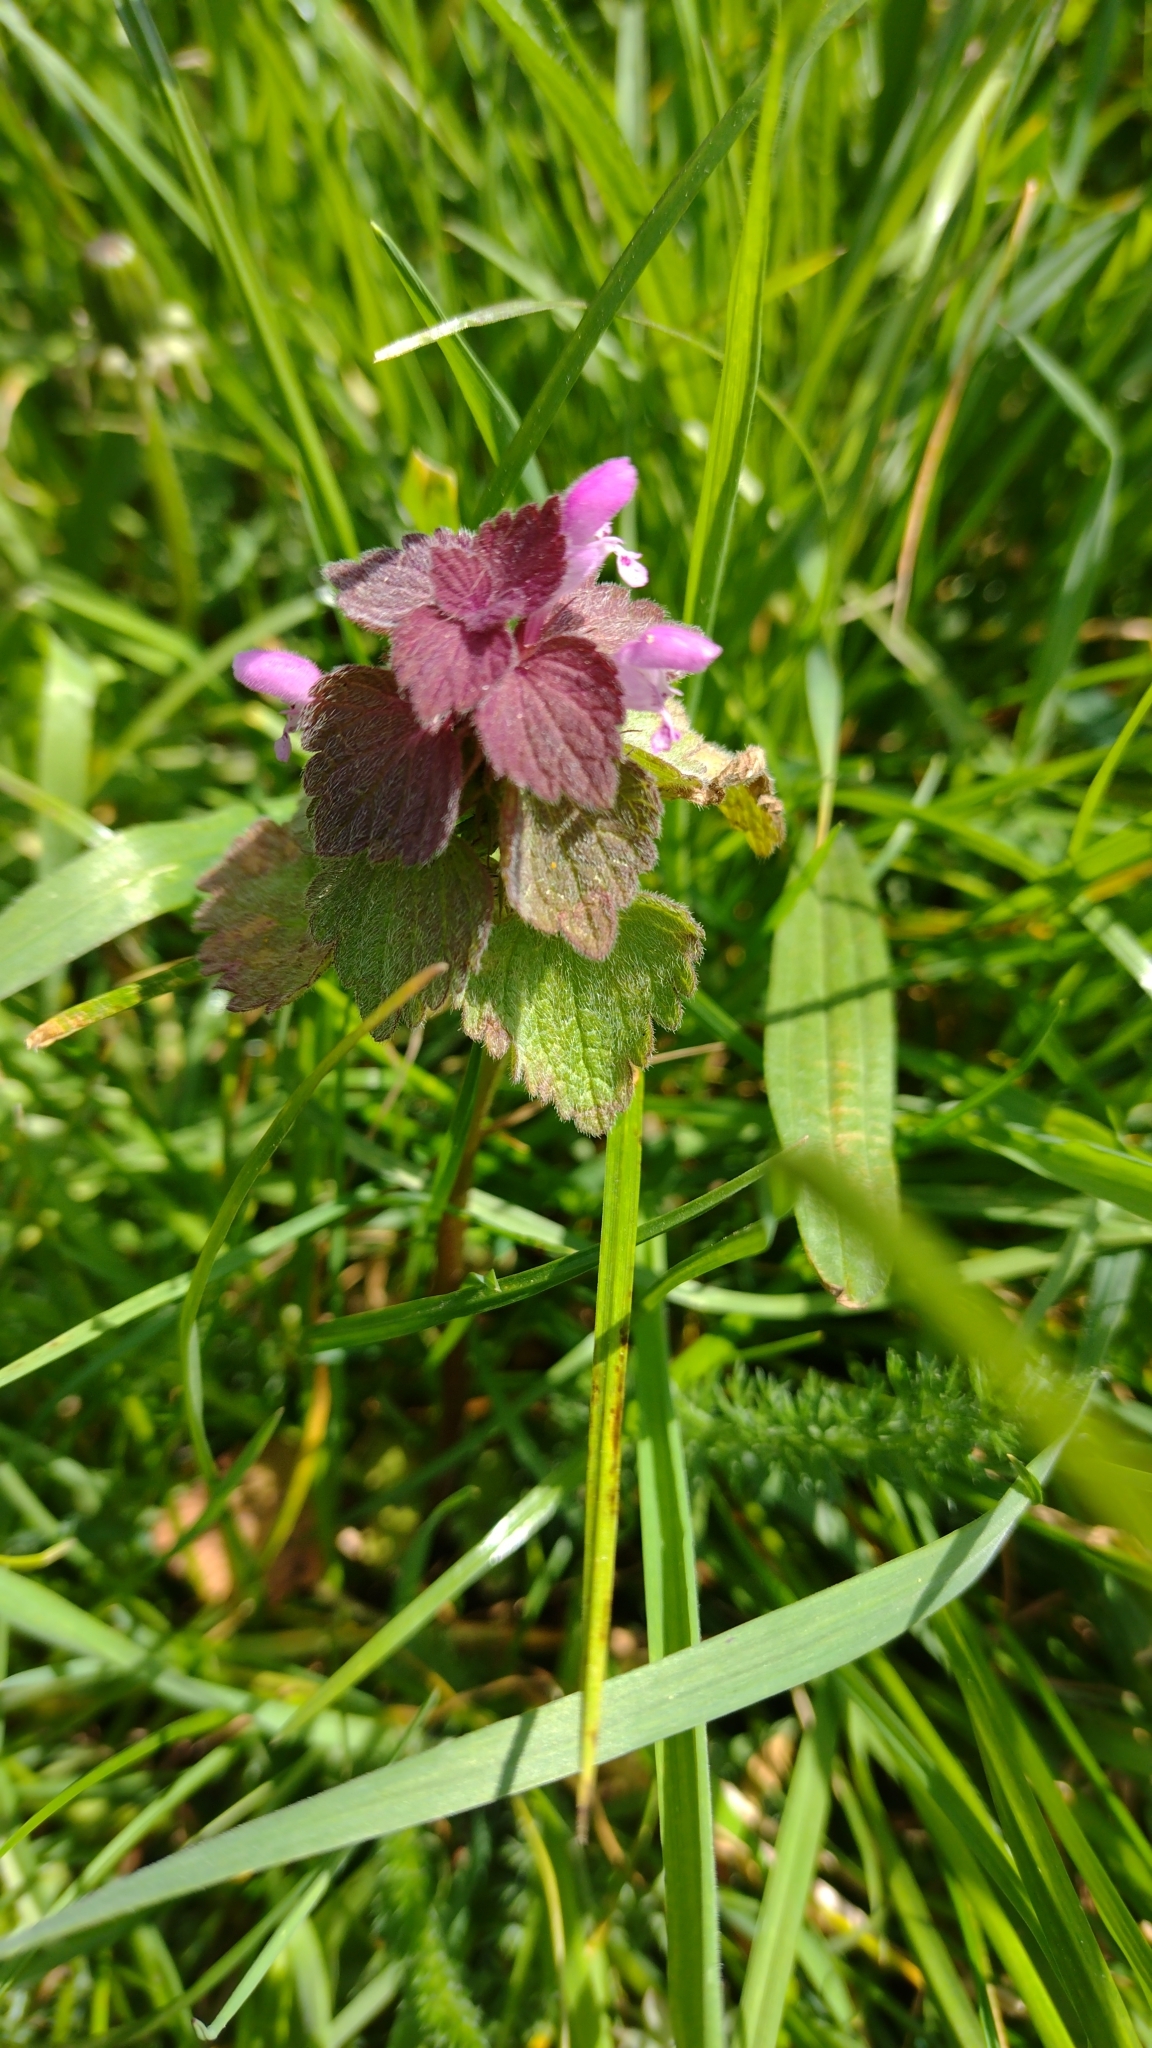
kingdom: Plantae
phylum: Tracheophyta
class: Magnoliopsida
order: Lamiales
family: Lamiaceae
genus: Lamium
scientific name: Lamium purpureum
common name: Red dead-nettle
